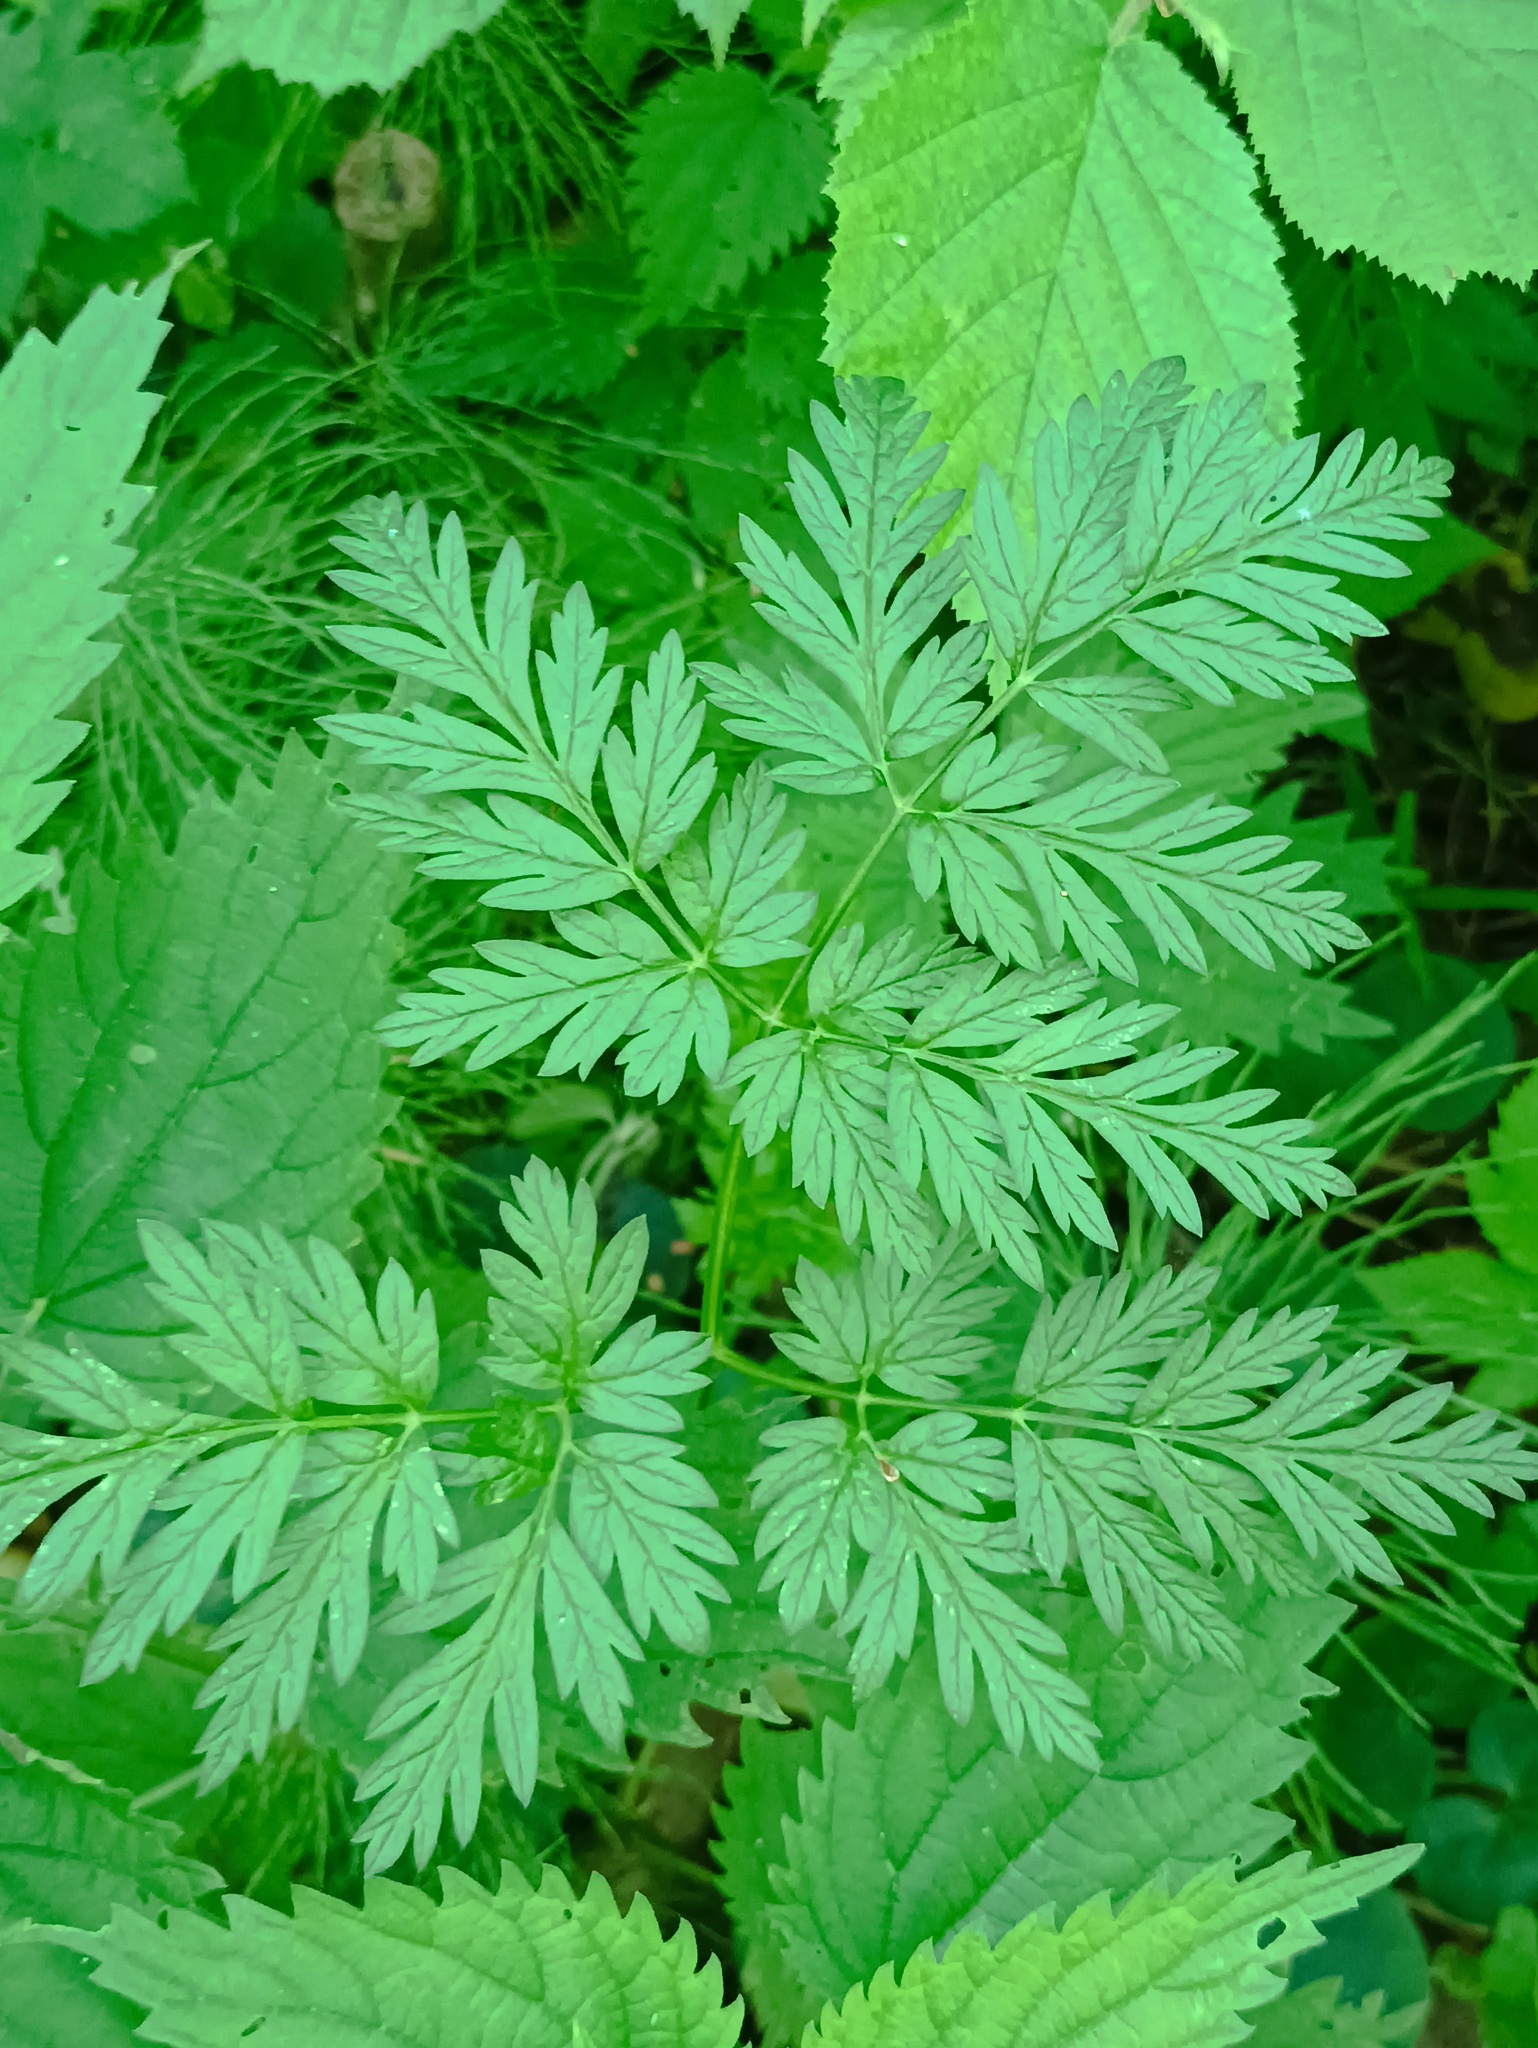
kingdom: Plantae
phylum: Tracheophyta
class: Magnoliopsida
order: Apiales
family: Apiaceae
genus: Anthriscus
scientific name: Anthriscus sylvestris
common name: Cow parsley
